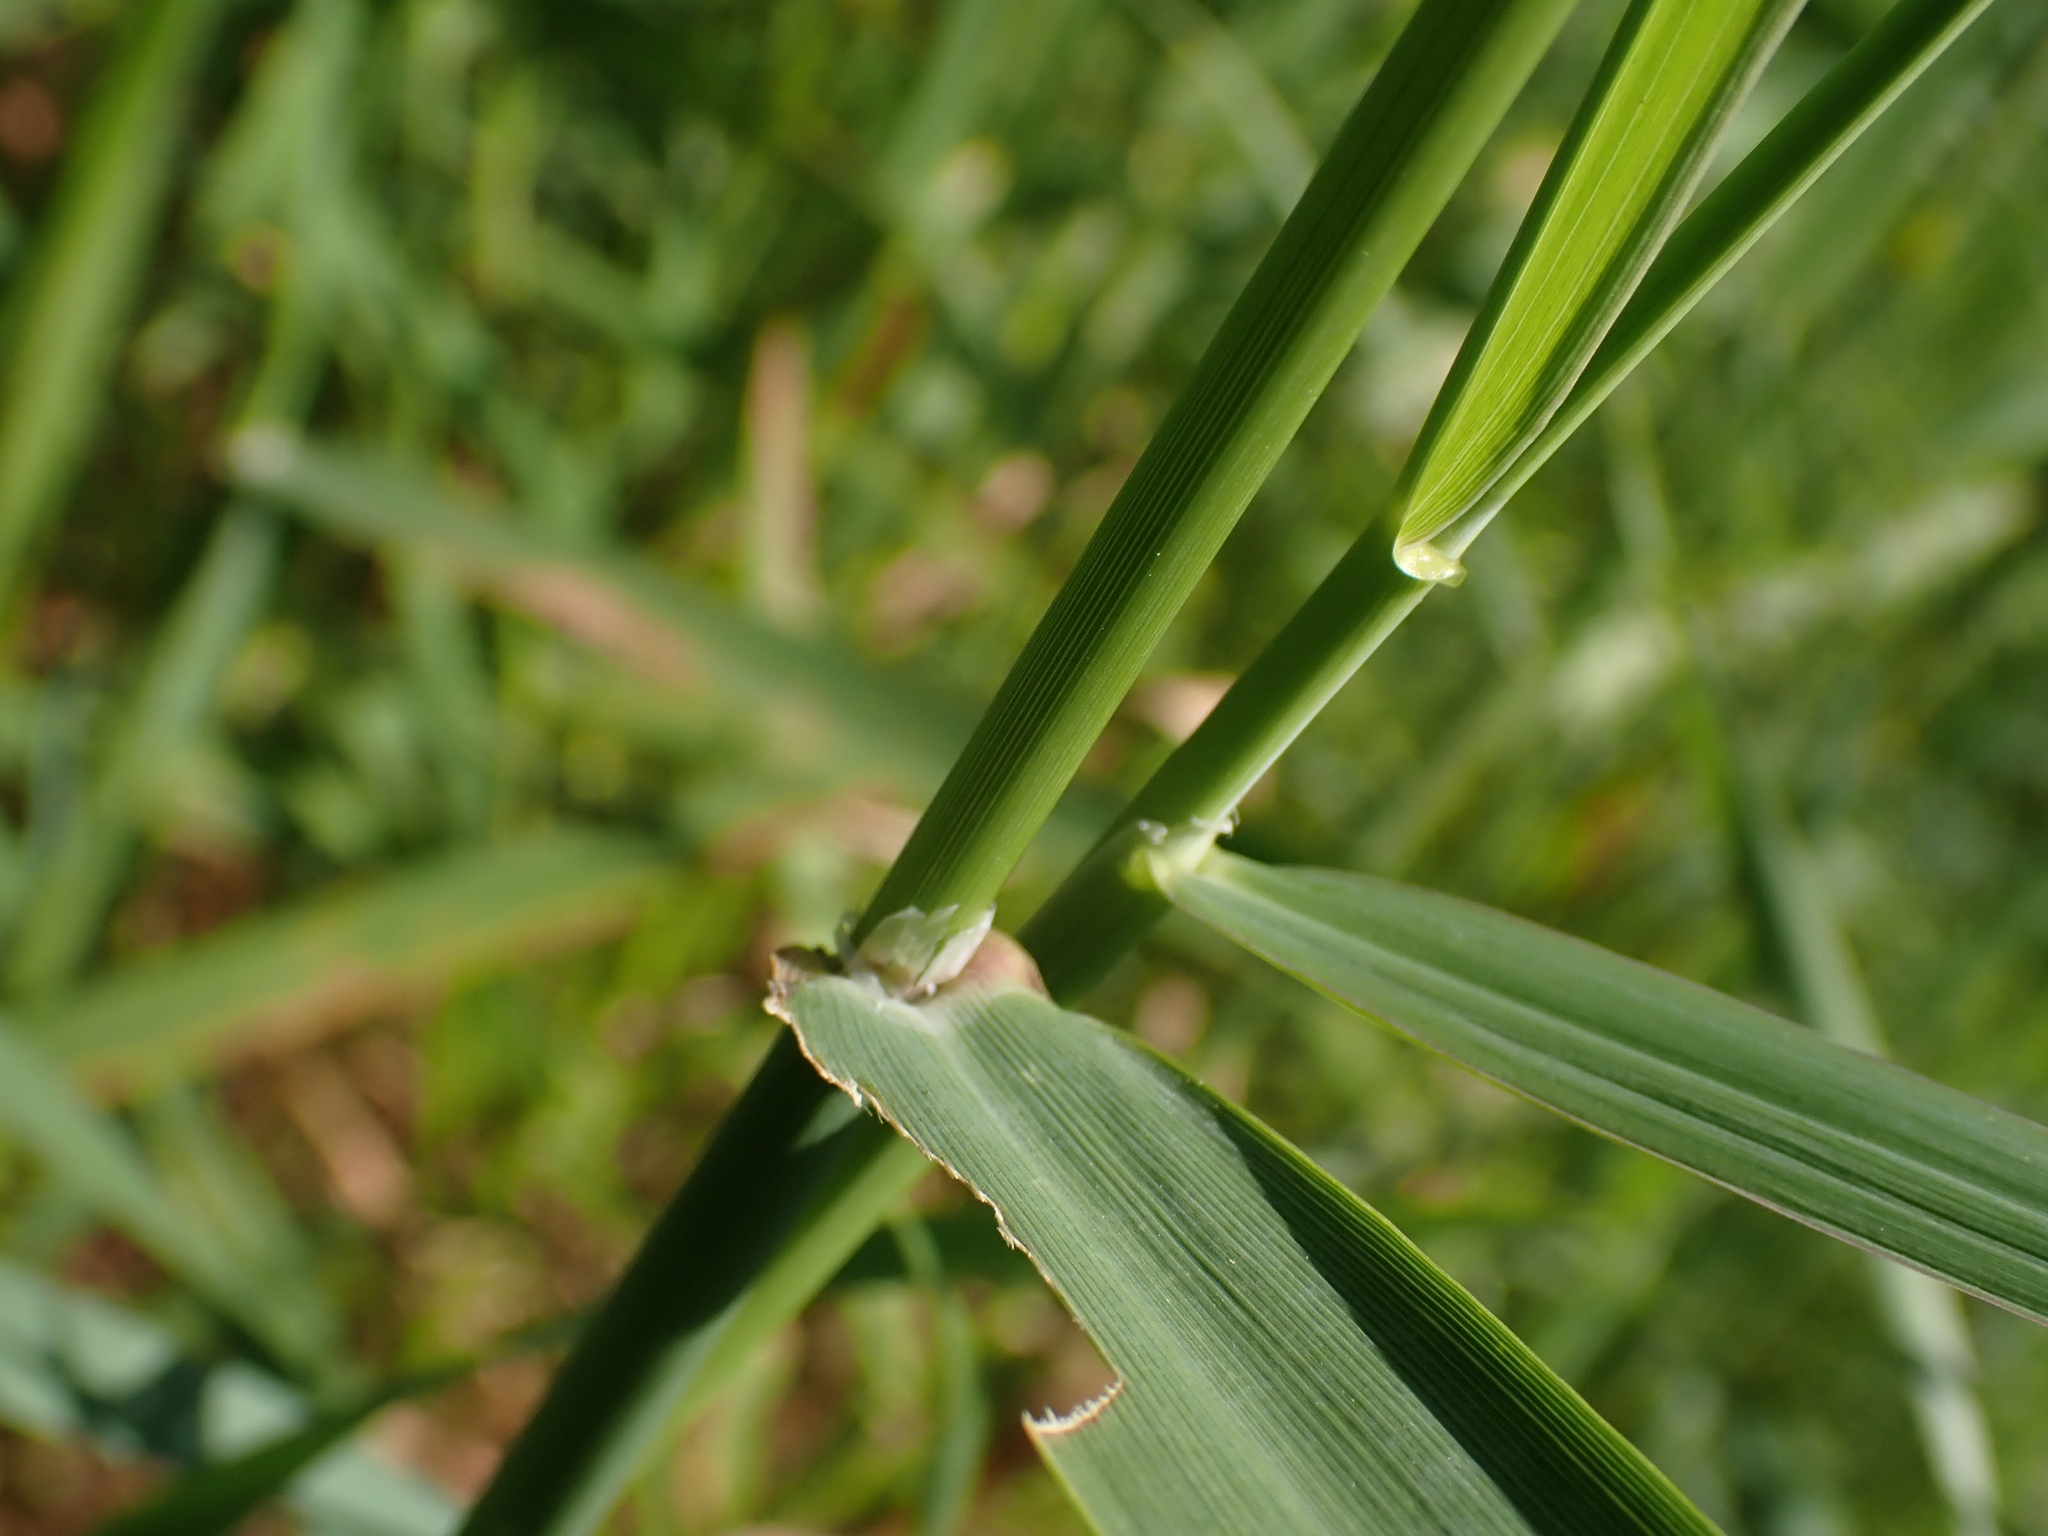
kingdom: Plantae
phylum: Tracheophyta
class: Liliopsida
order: Poales
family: Poaceae
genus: Phalaris
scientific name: Phalaris arundinacea
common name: Reed canary-grass
